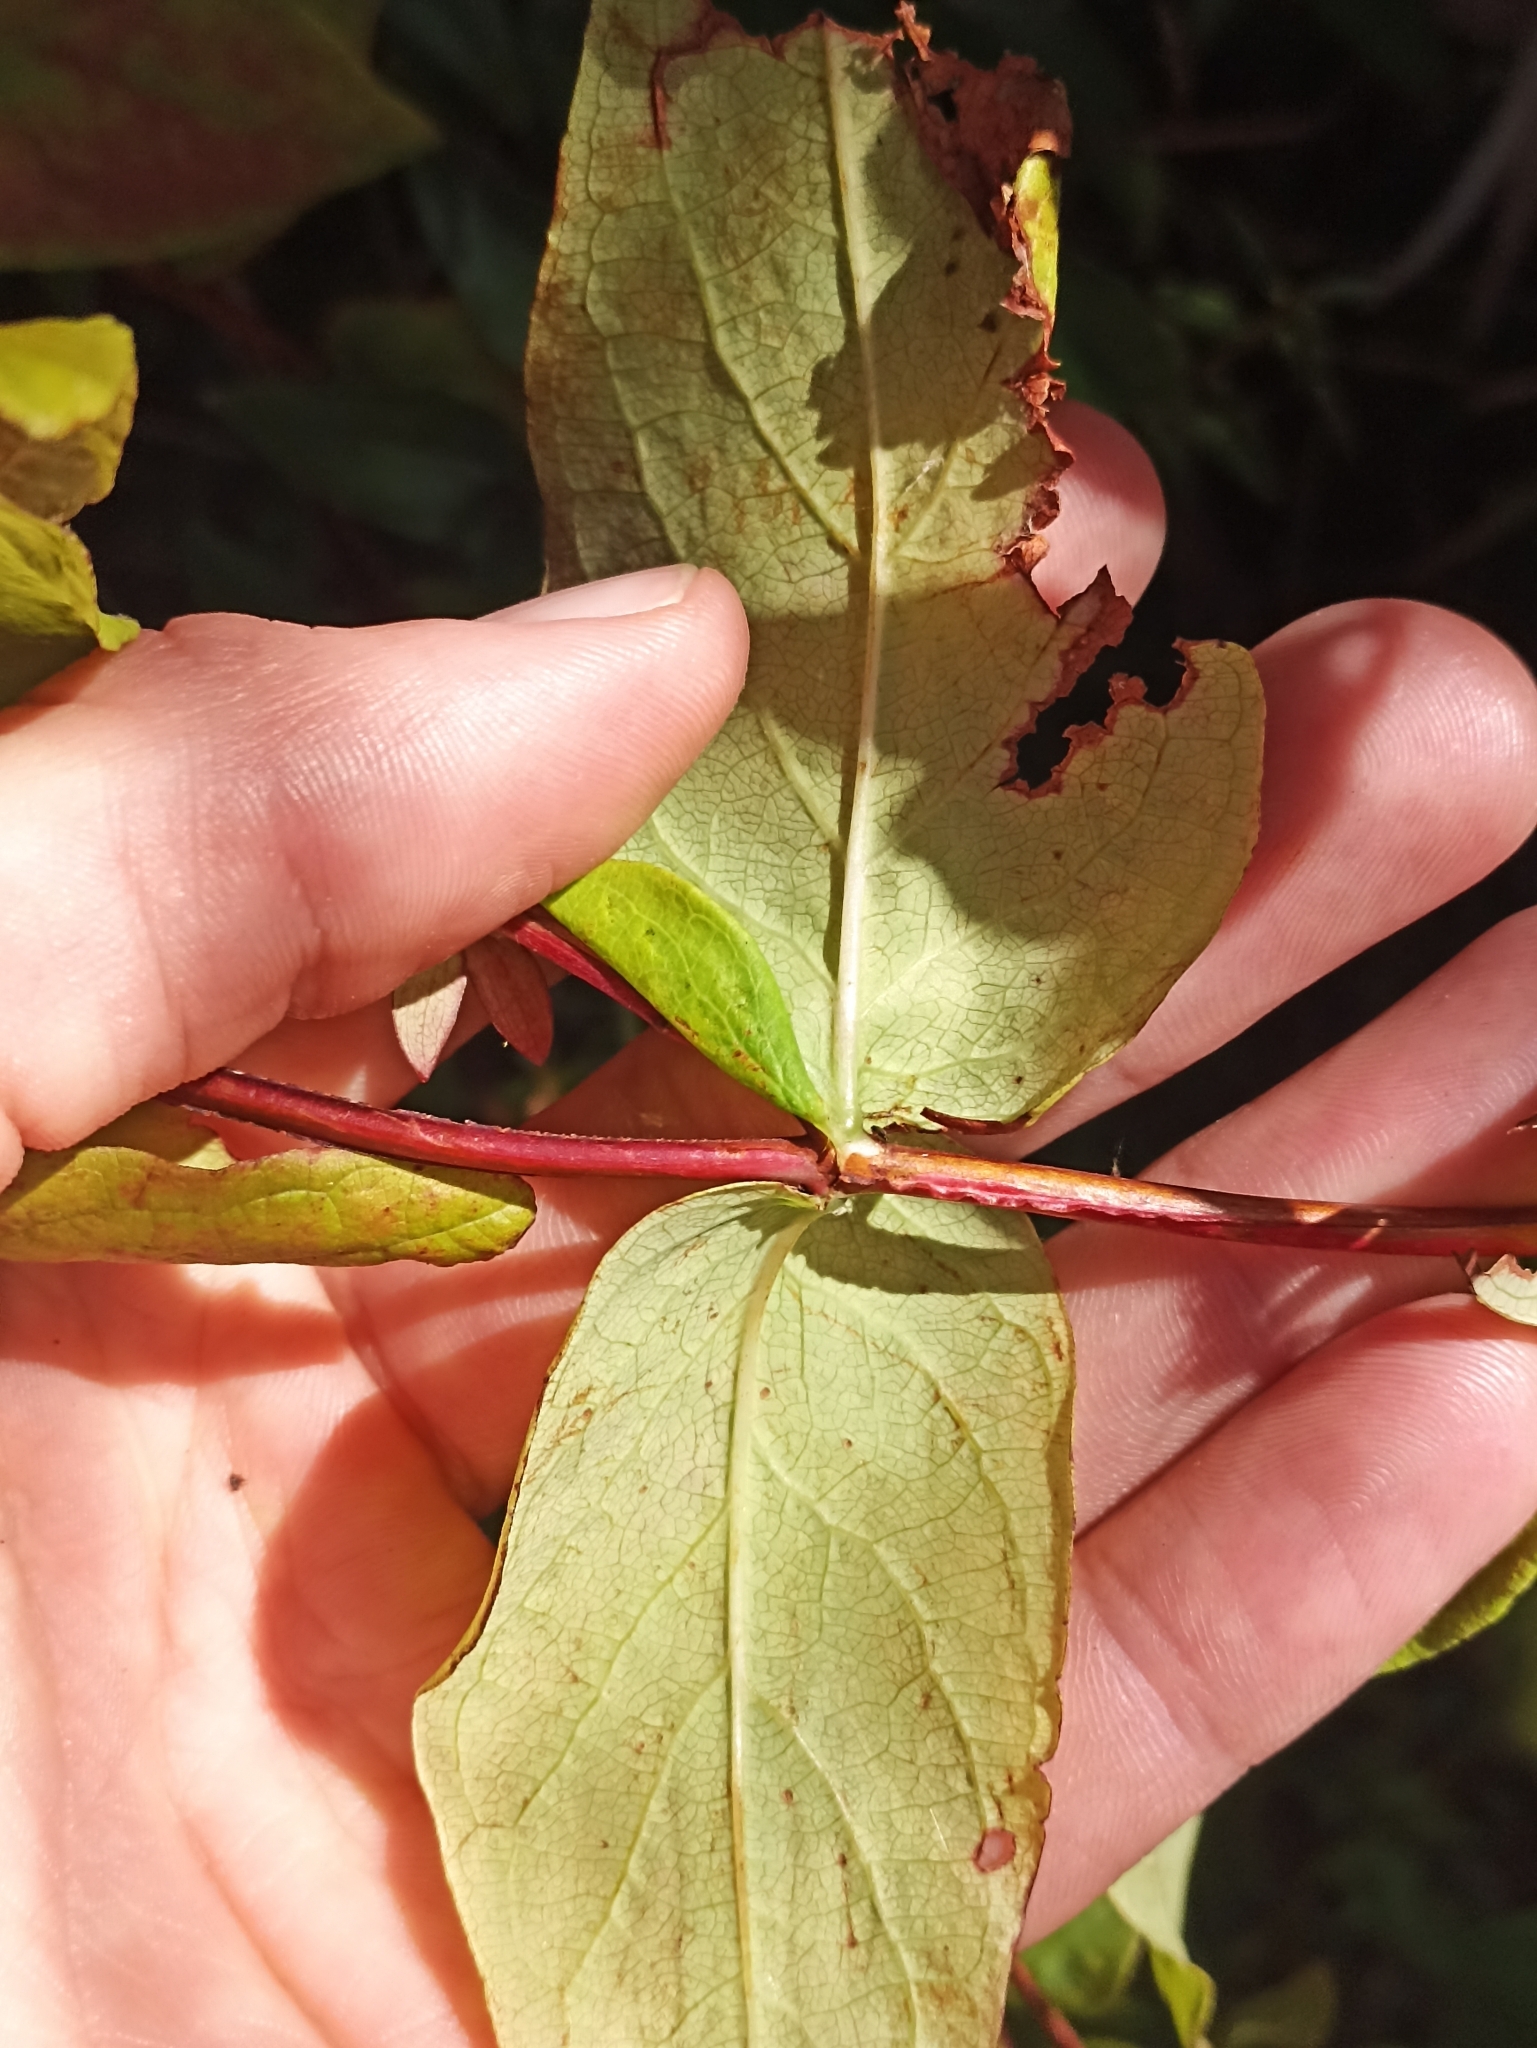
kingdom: Plantae
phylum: Tracheophyta
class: Magnoliopsida
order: Malpighiales
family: Hypericaceae
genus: Hypericum
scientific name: Hypericum androsaemum
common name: Sweet-amber
